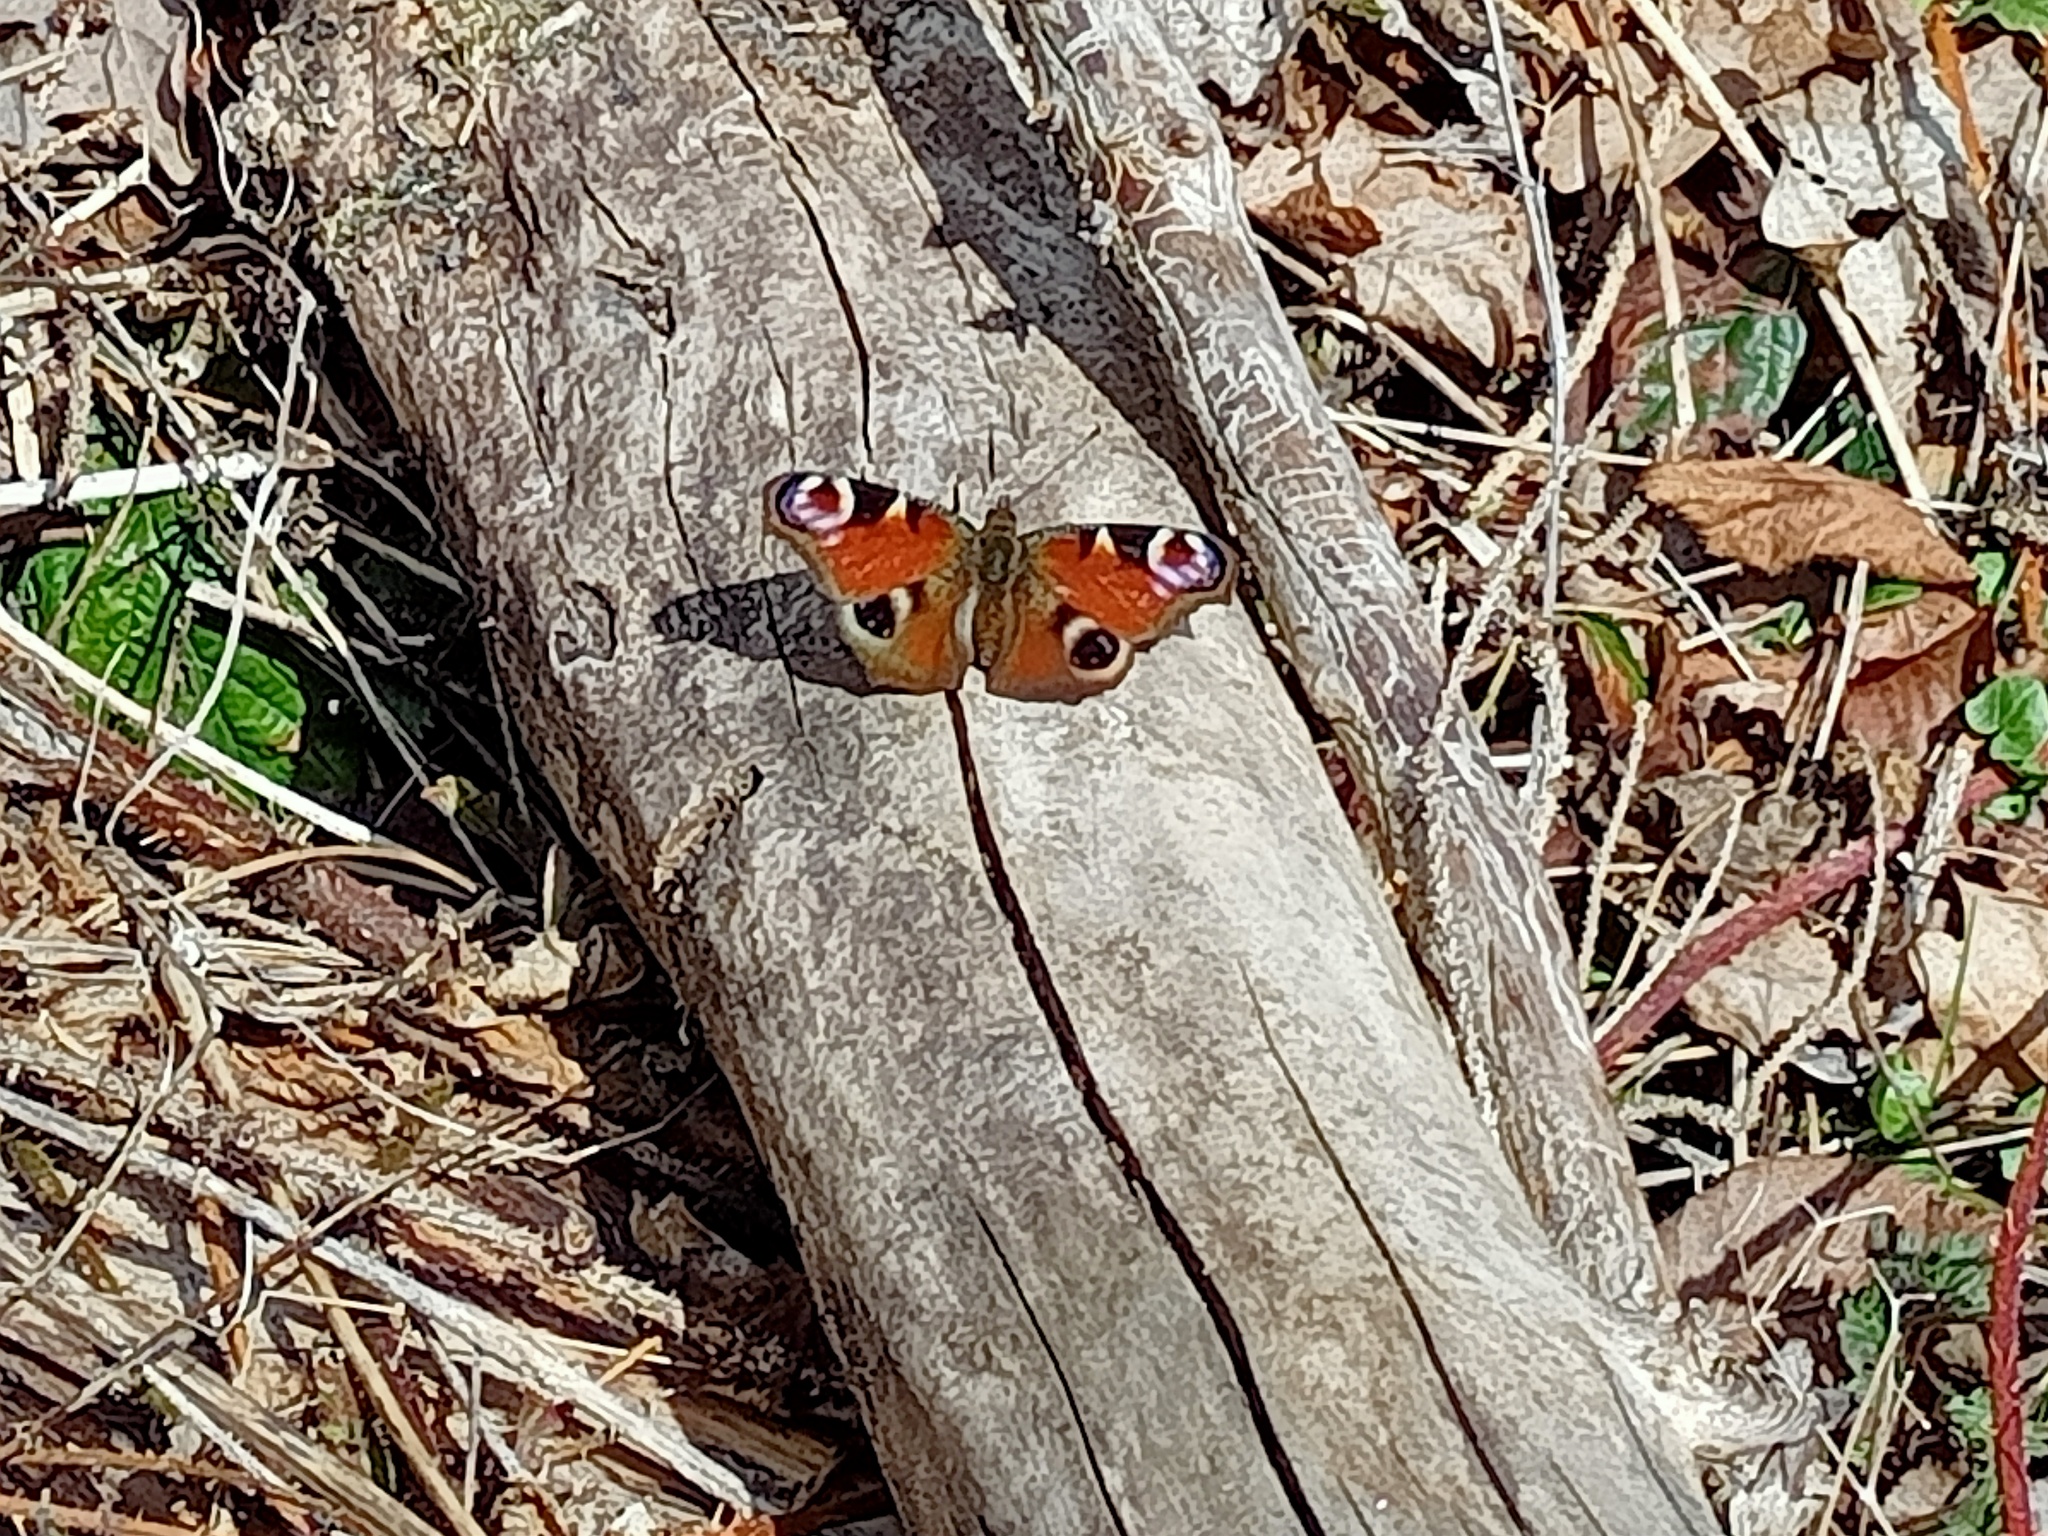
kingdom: Animalia
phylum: Arthropoda
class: Insecta
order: Lepidoptera
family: Nymphalidae
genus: Aglais
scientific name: Aglais io
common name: Peacock
